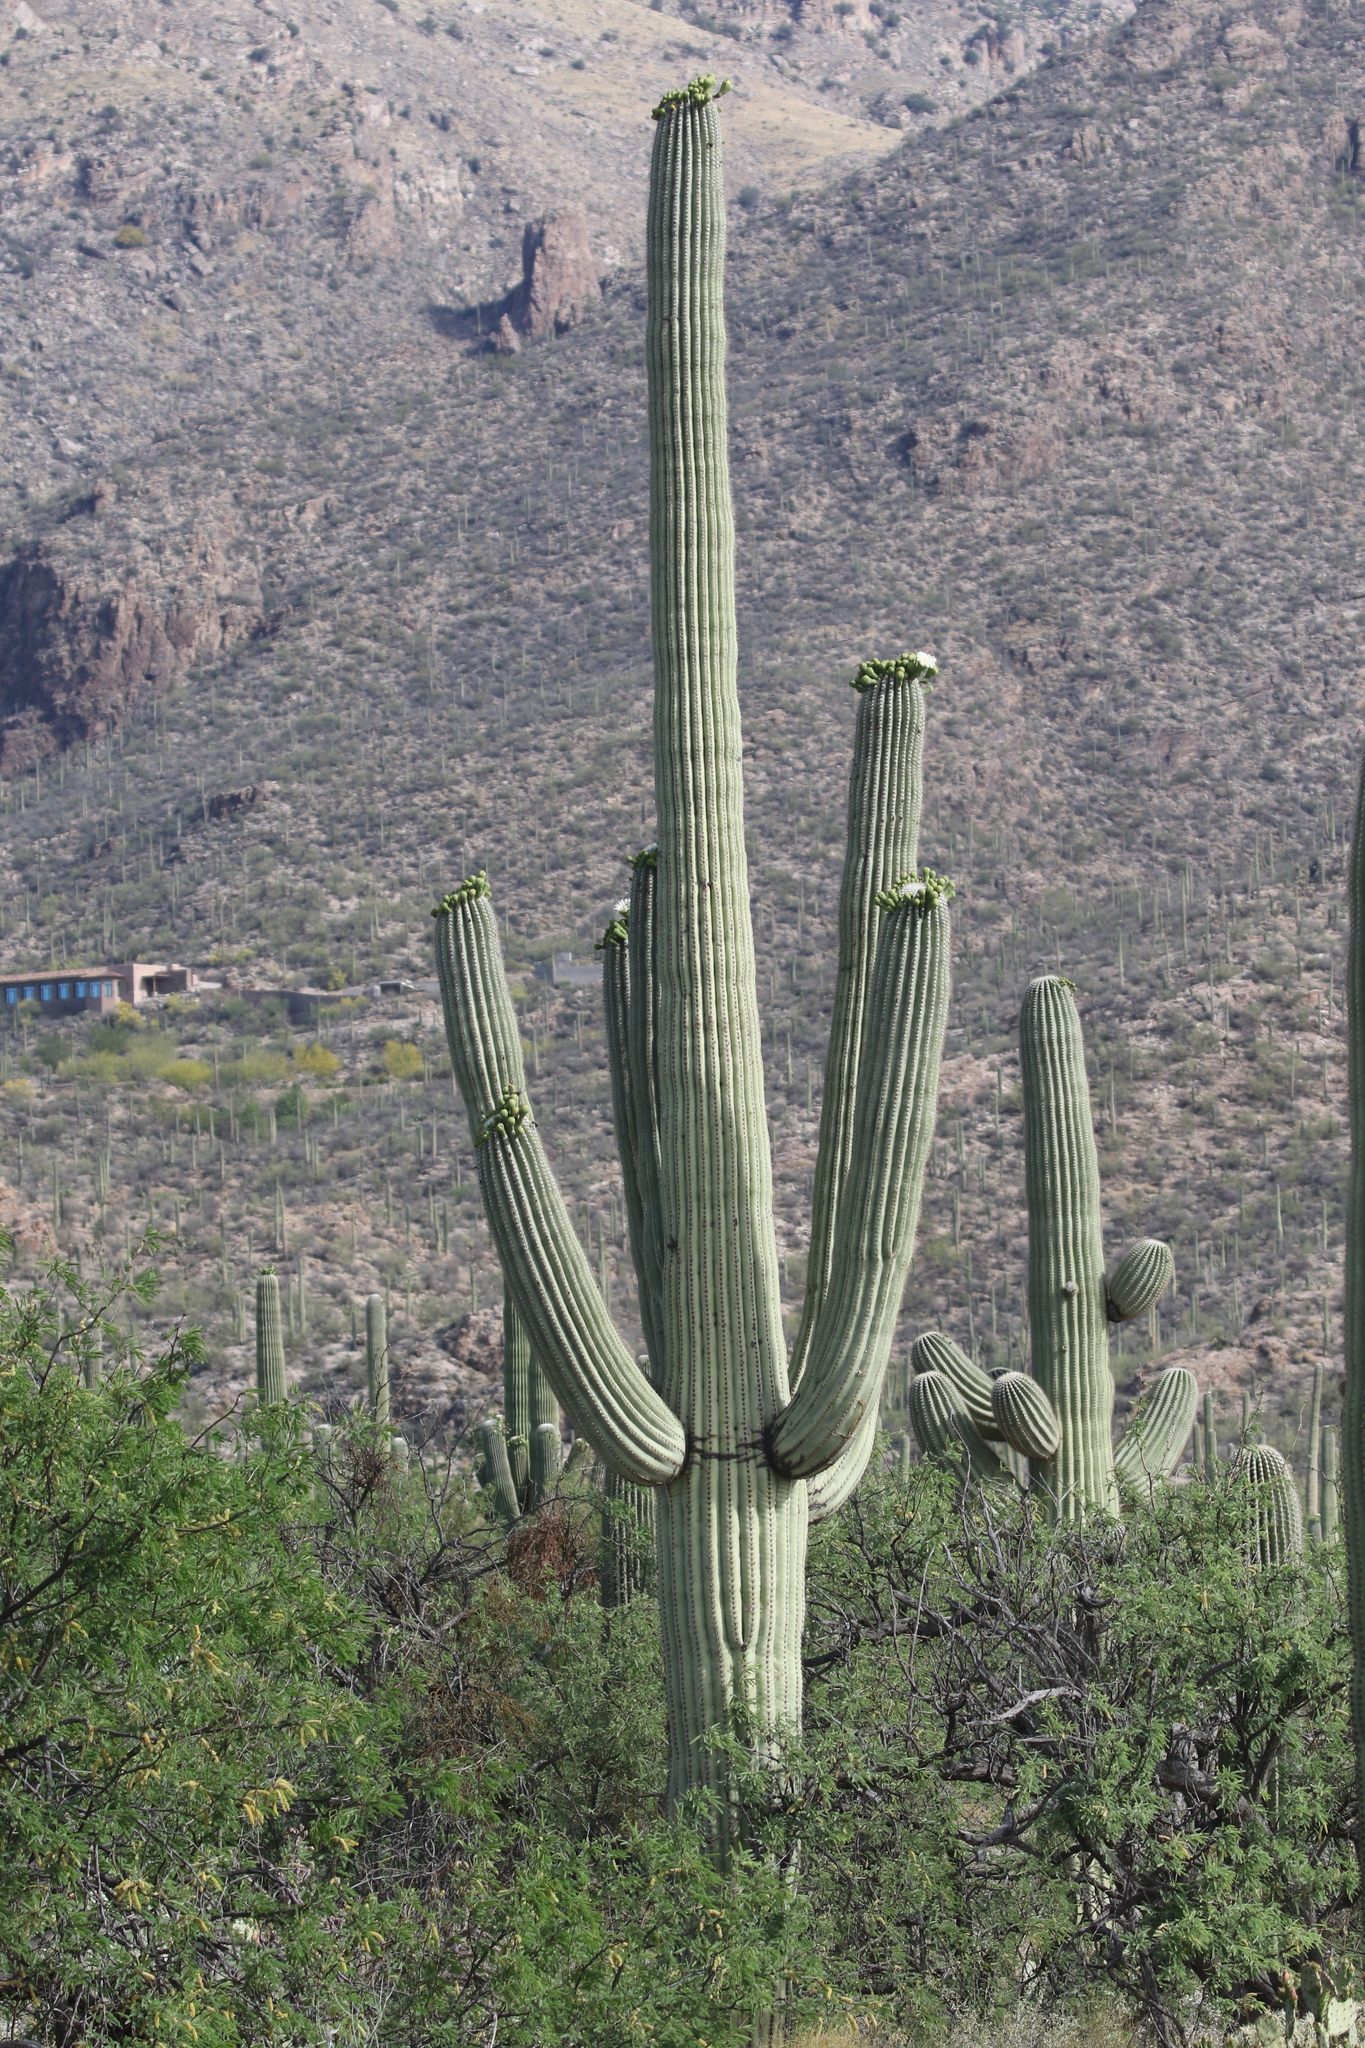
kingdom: Plantae
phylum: Tracheophyta
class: Magnoliopsida
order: Caryophyllales
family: Cactaceae
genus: Carnegiea
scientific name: Carnegiea gigantea
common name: Saguaro
